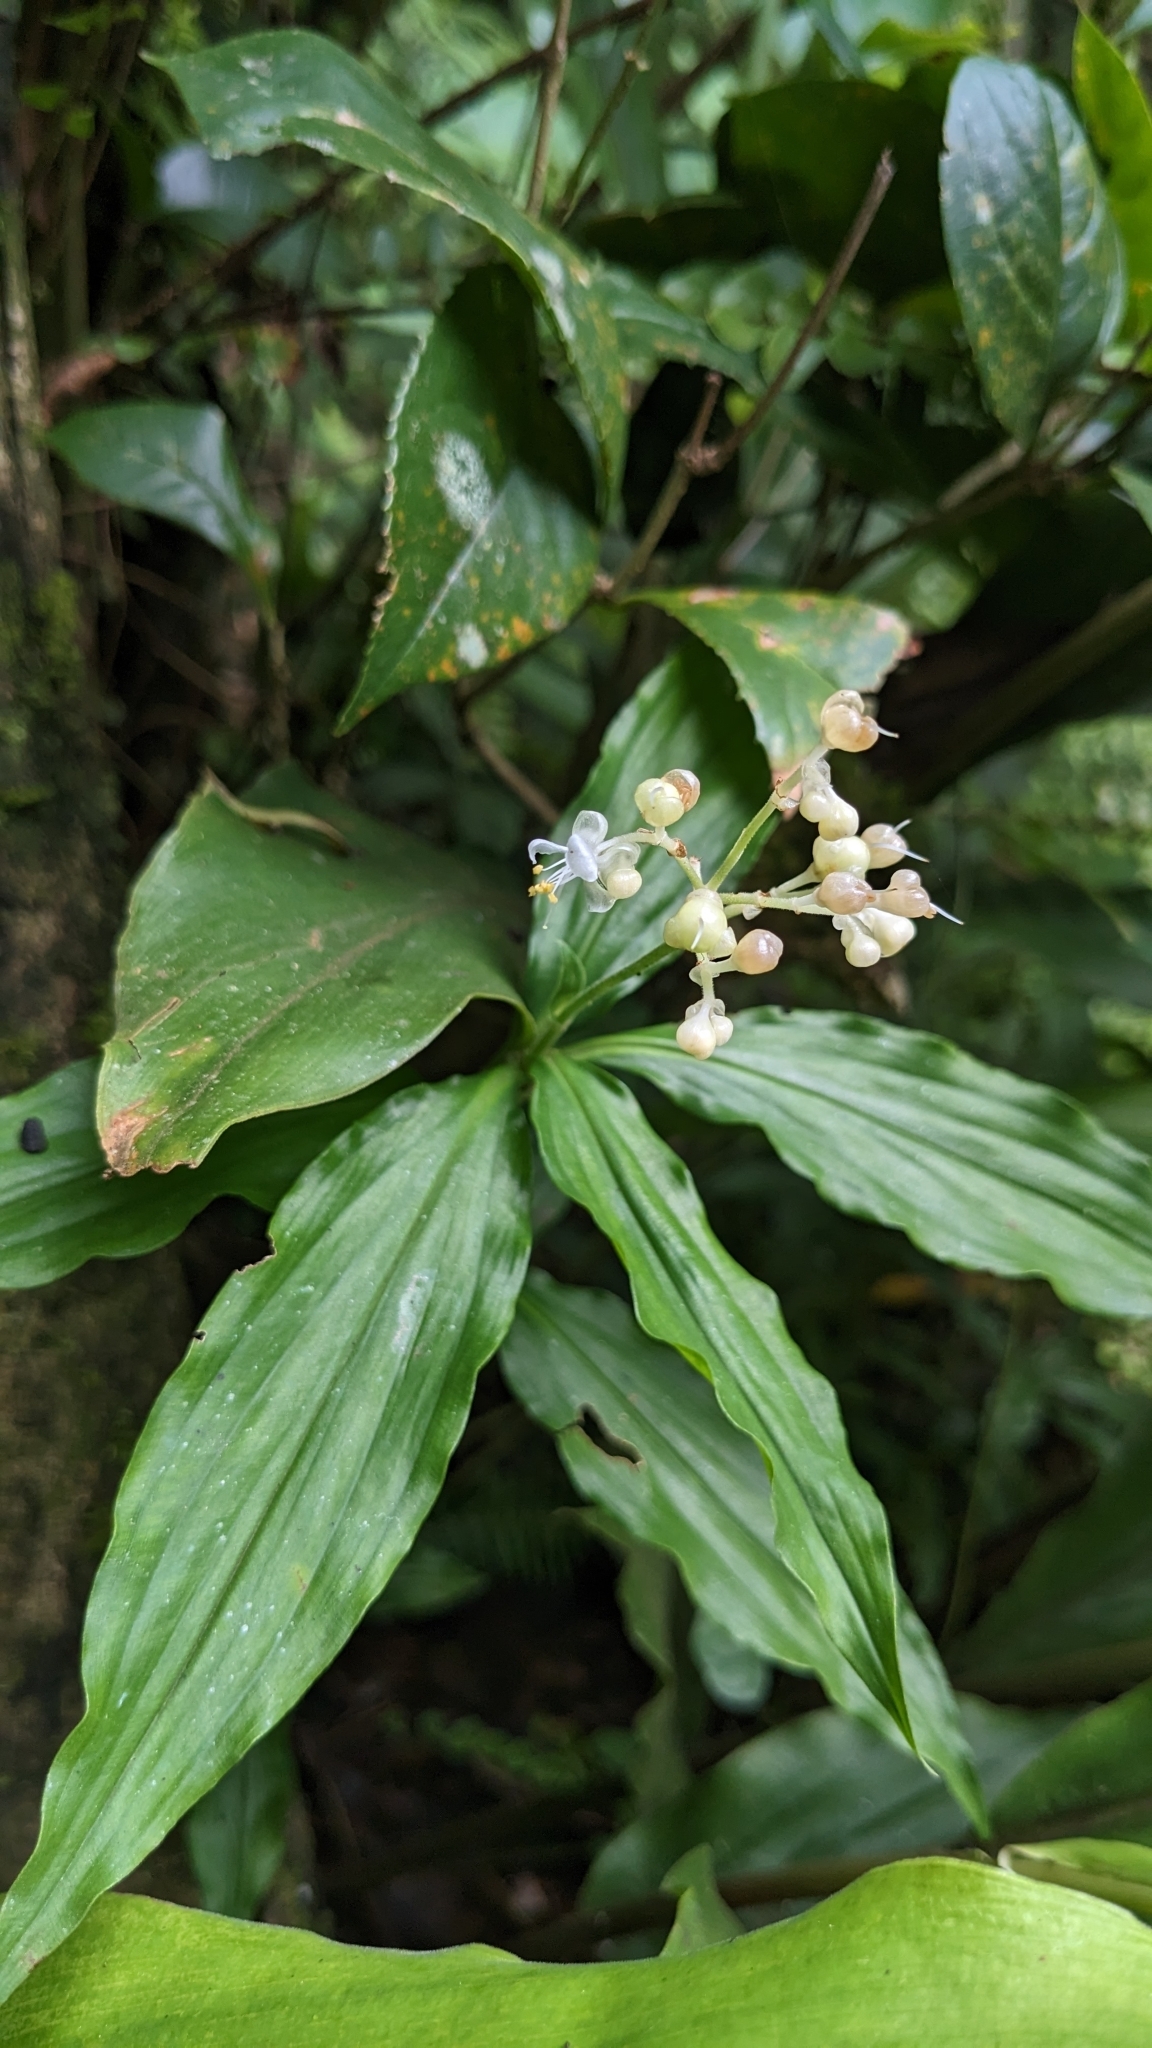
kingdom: Plantae
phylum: Tracheophyta
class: Liliopsida
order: Commelinales
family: Commelinaceae
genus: Pollia
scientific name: Pollia miranda
